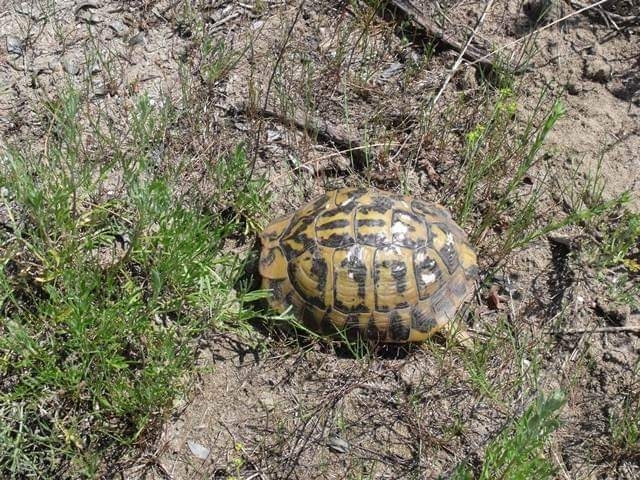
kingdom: Animalia
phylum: Chordata
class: Testudines
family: Testudinidae
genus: Testudo
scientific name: Testudo hermanni
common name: Hermann's tortoise
